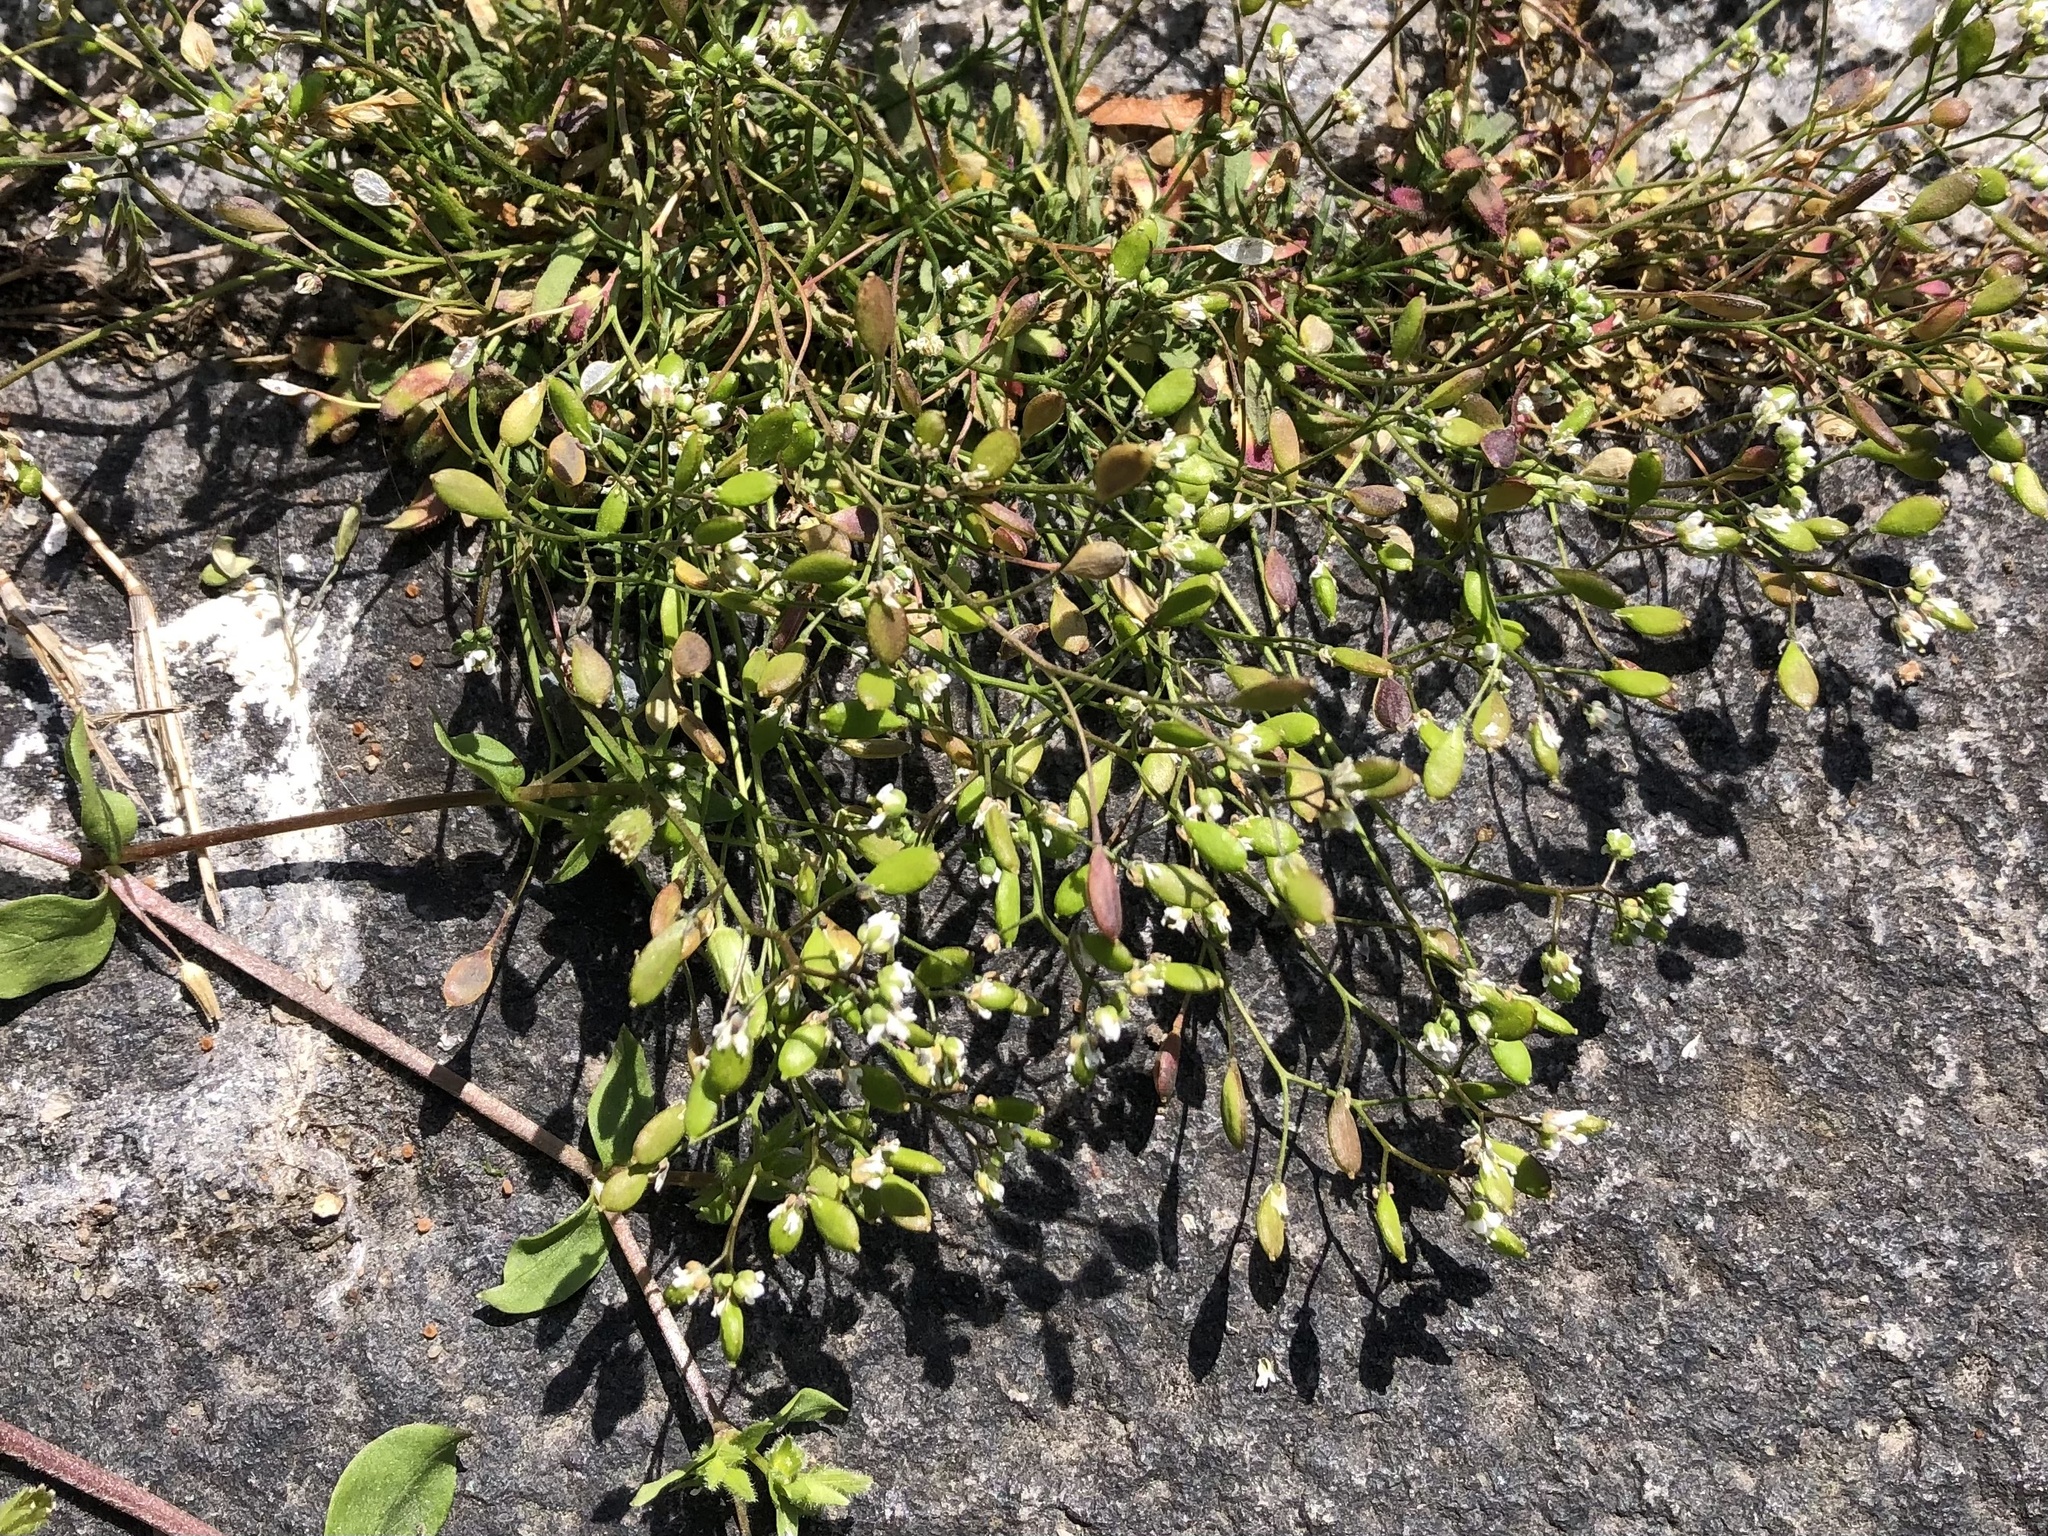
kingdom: Plantae
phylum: Tracheophyta
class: Magnoliopsida
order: Brassicales
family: Brassicaceae
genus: Draba
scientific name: Draba verna
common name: Spring draba
